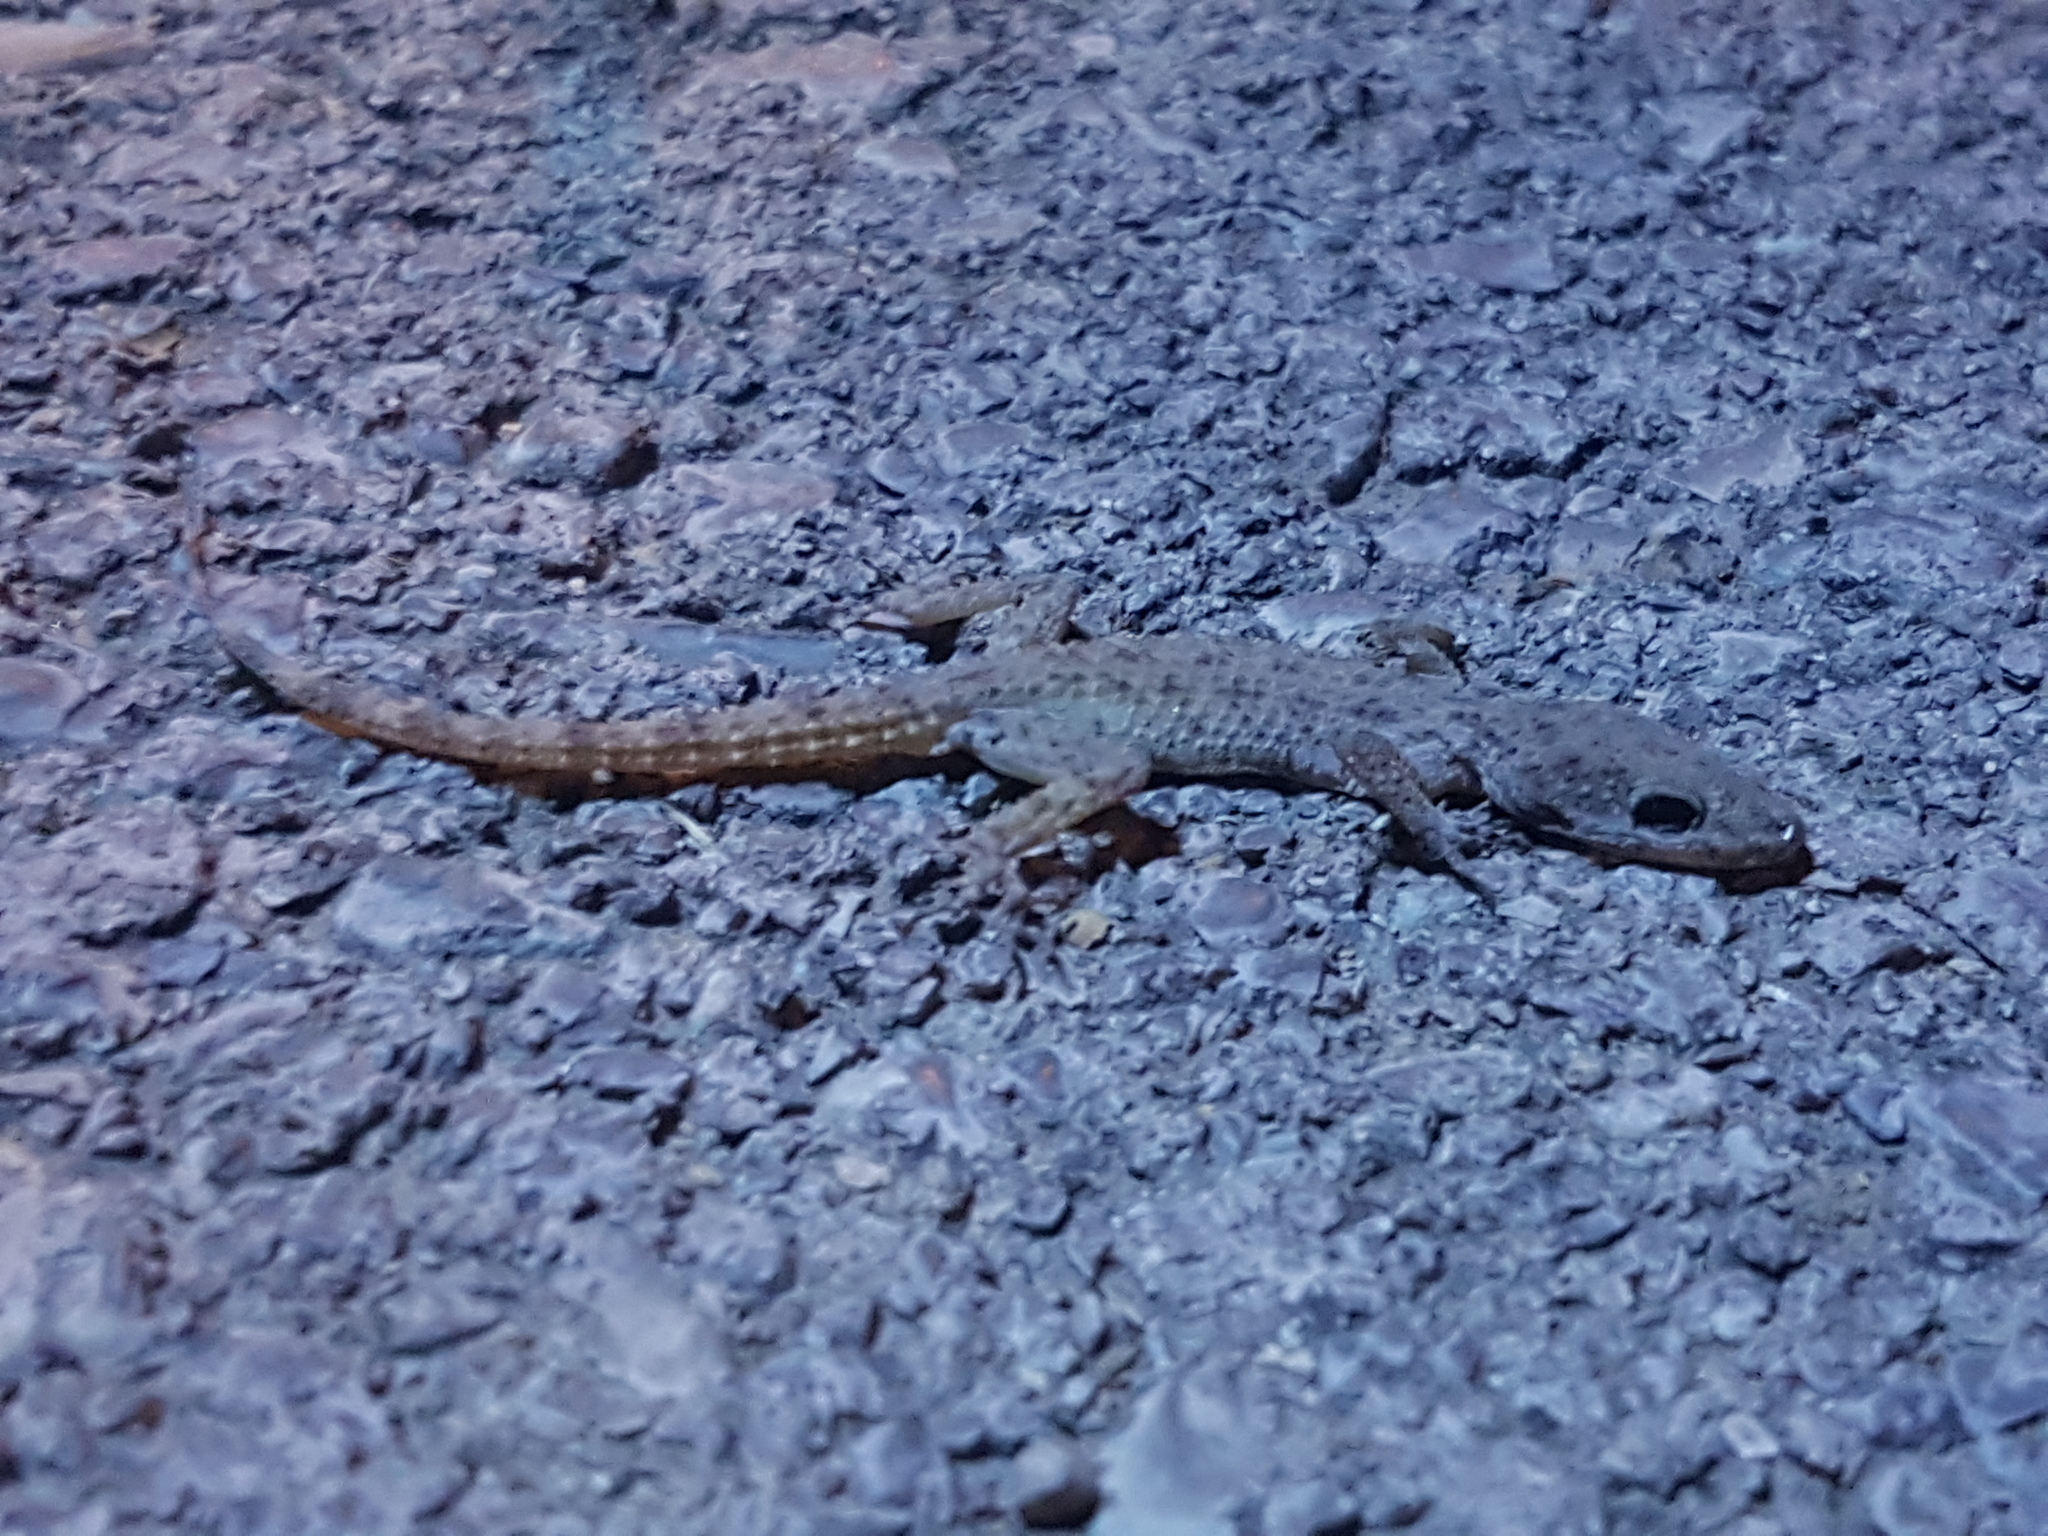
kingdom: Animalia
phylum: Chordata
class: Squamata
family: Gekkonidae
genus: Cyrtopodion
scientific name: Cyrtopodion scabrum
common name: Rough-tailed gecko
